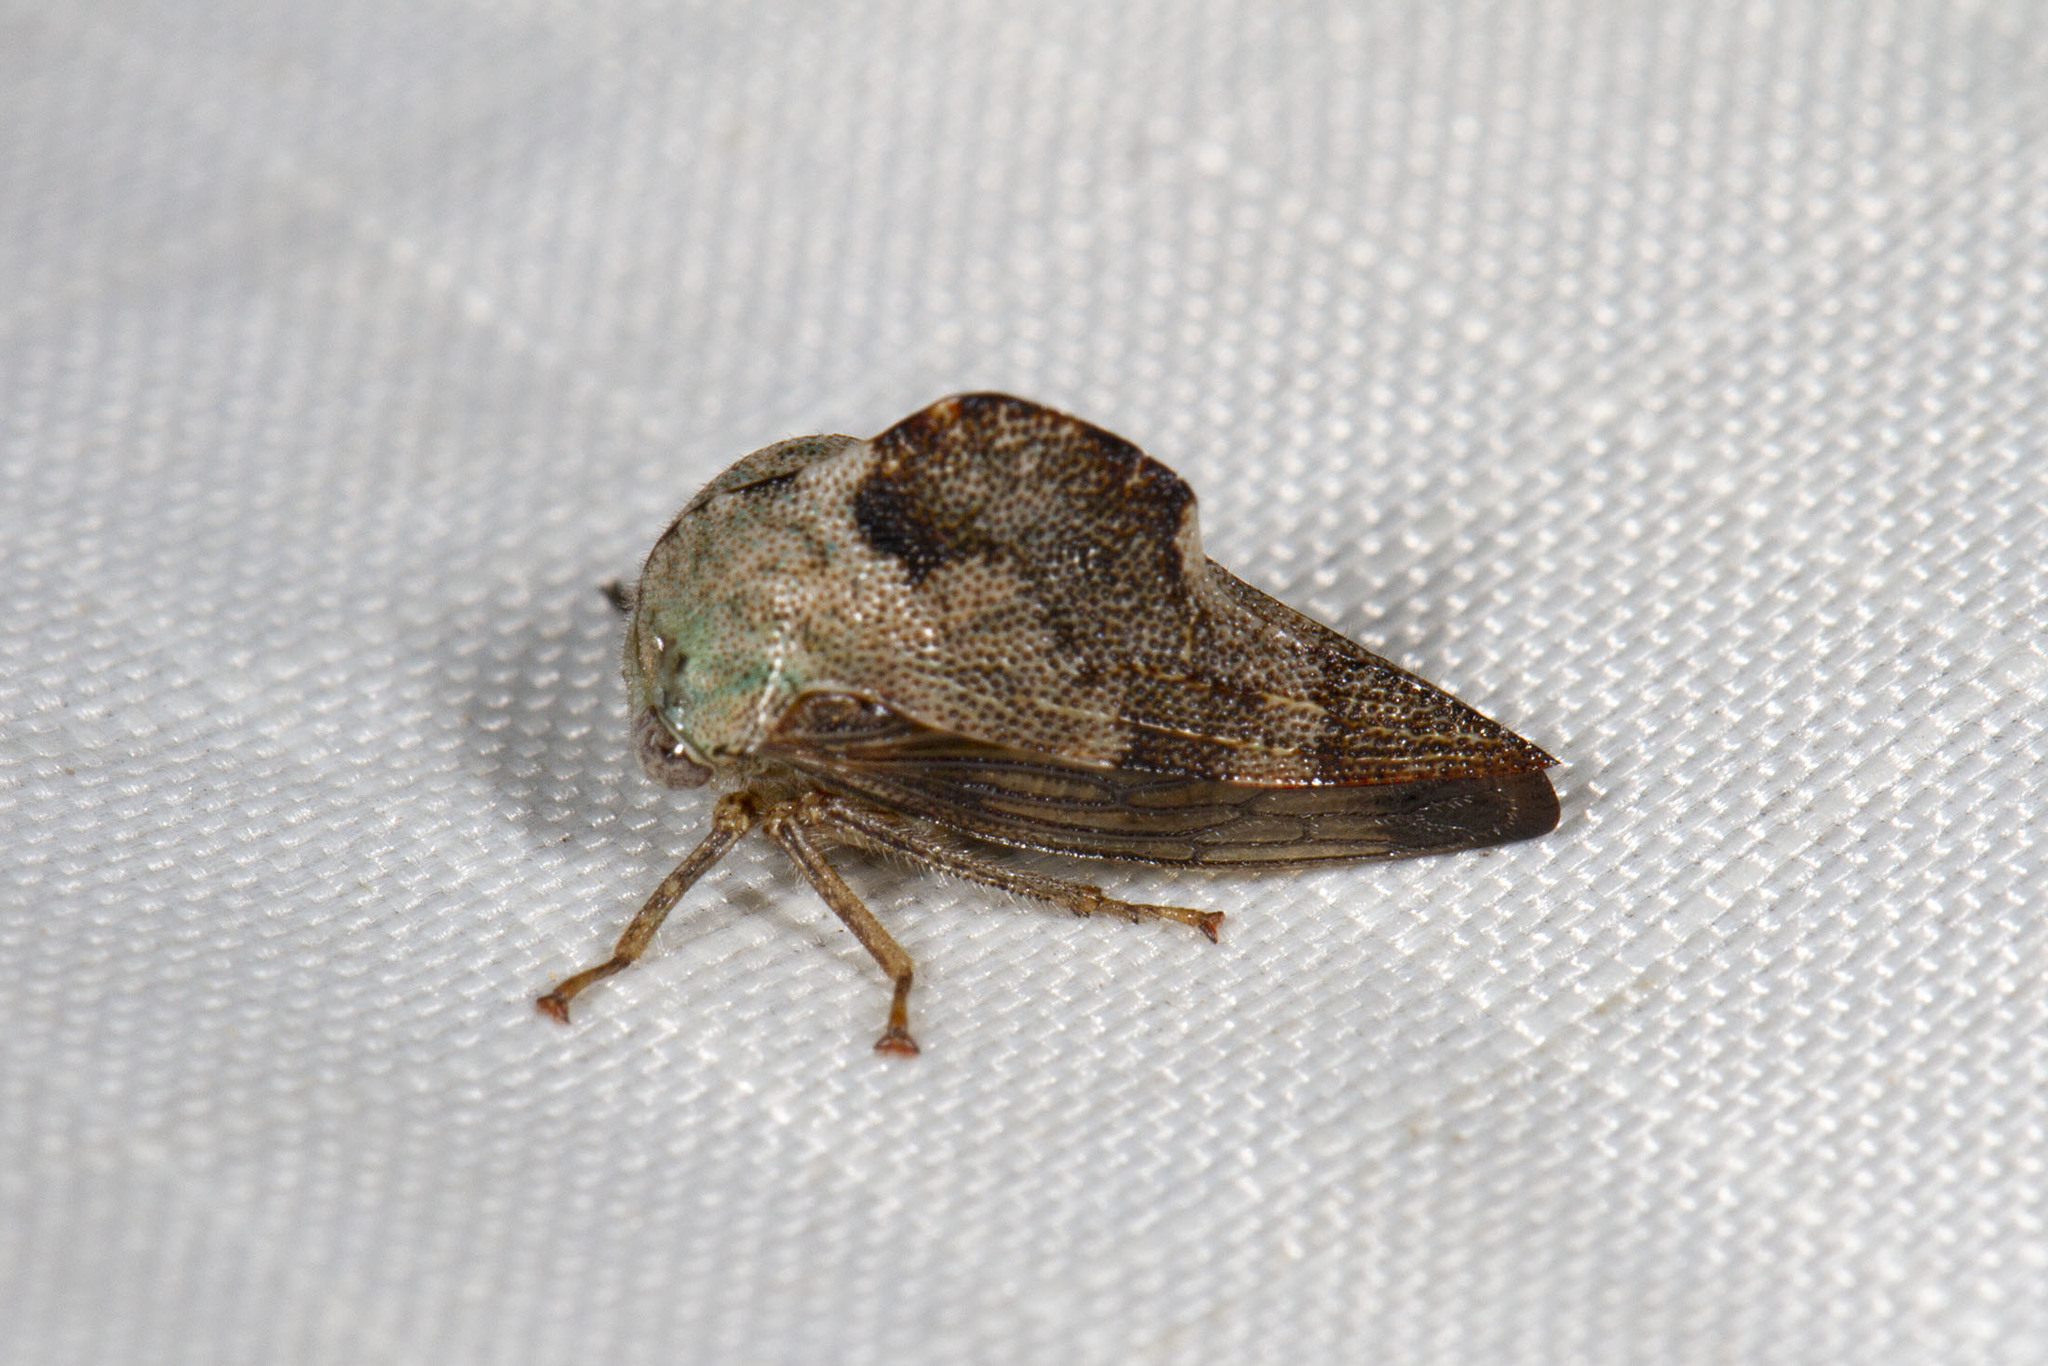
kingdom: Animalia
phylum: Arthropoda
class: Insecta
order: Hemiptera
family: Membracidae
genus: Telamona
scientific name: Telamona reclivata
